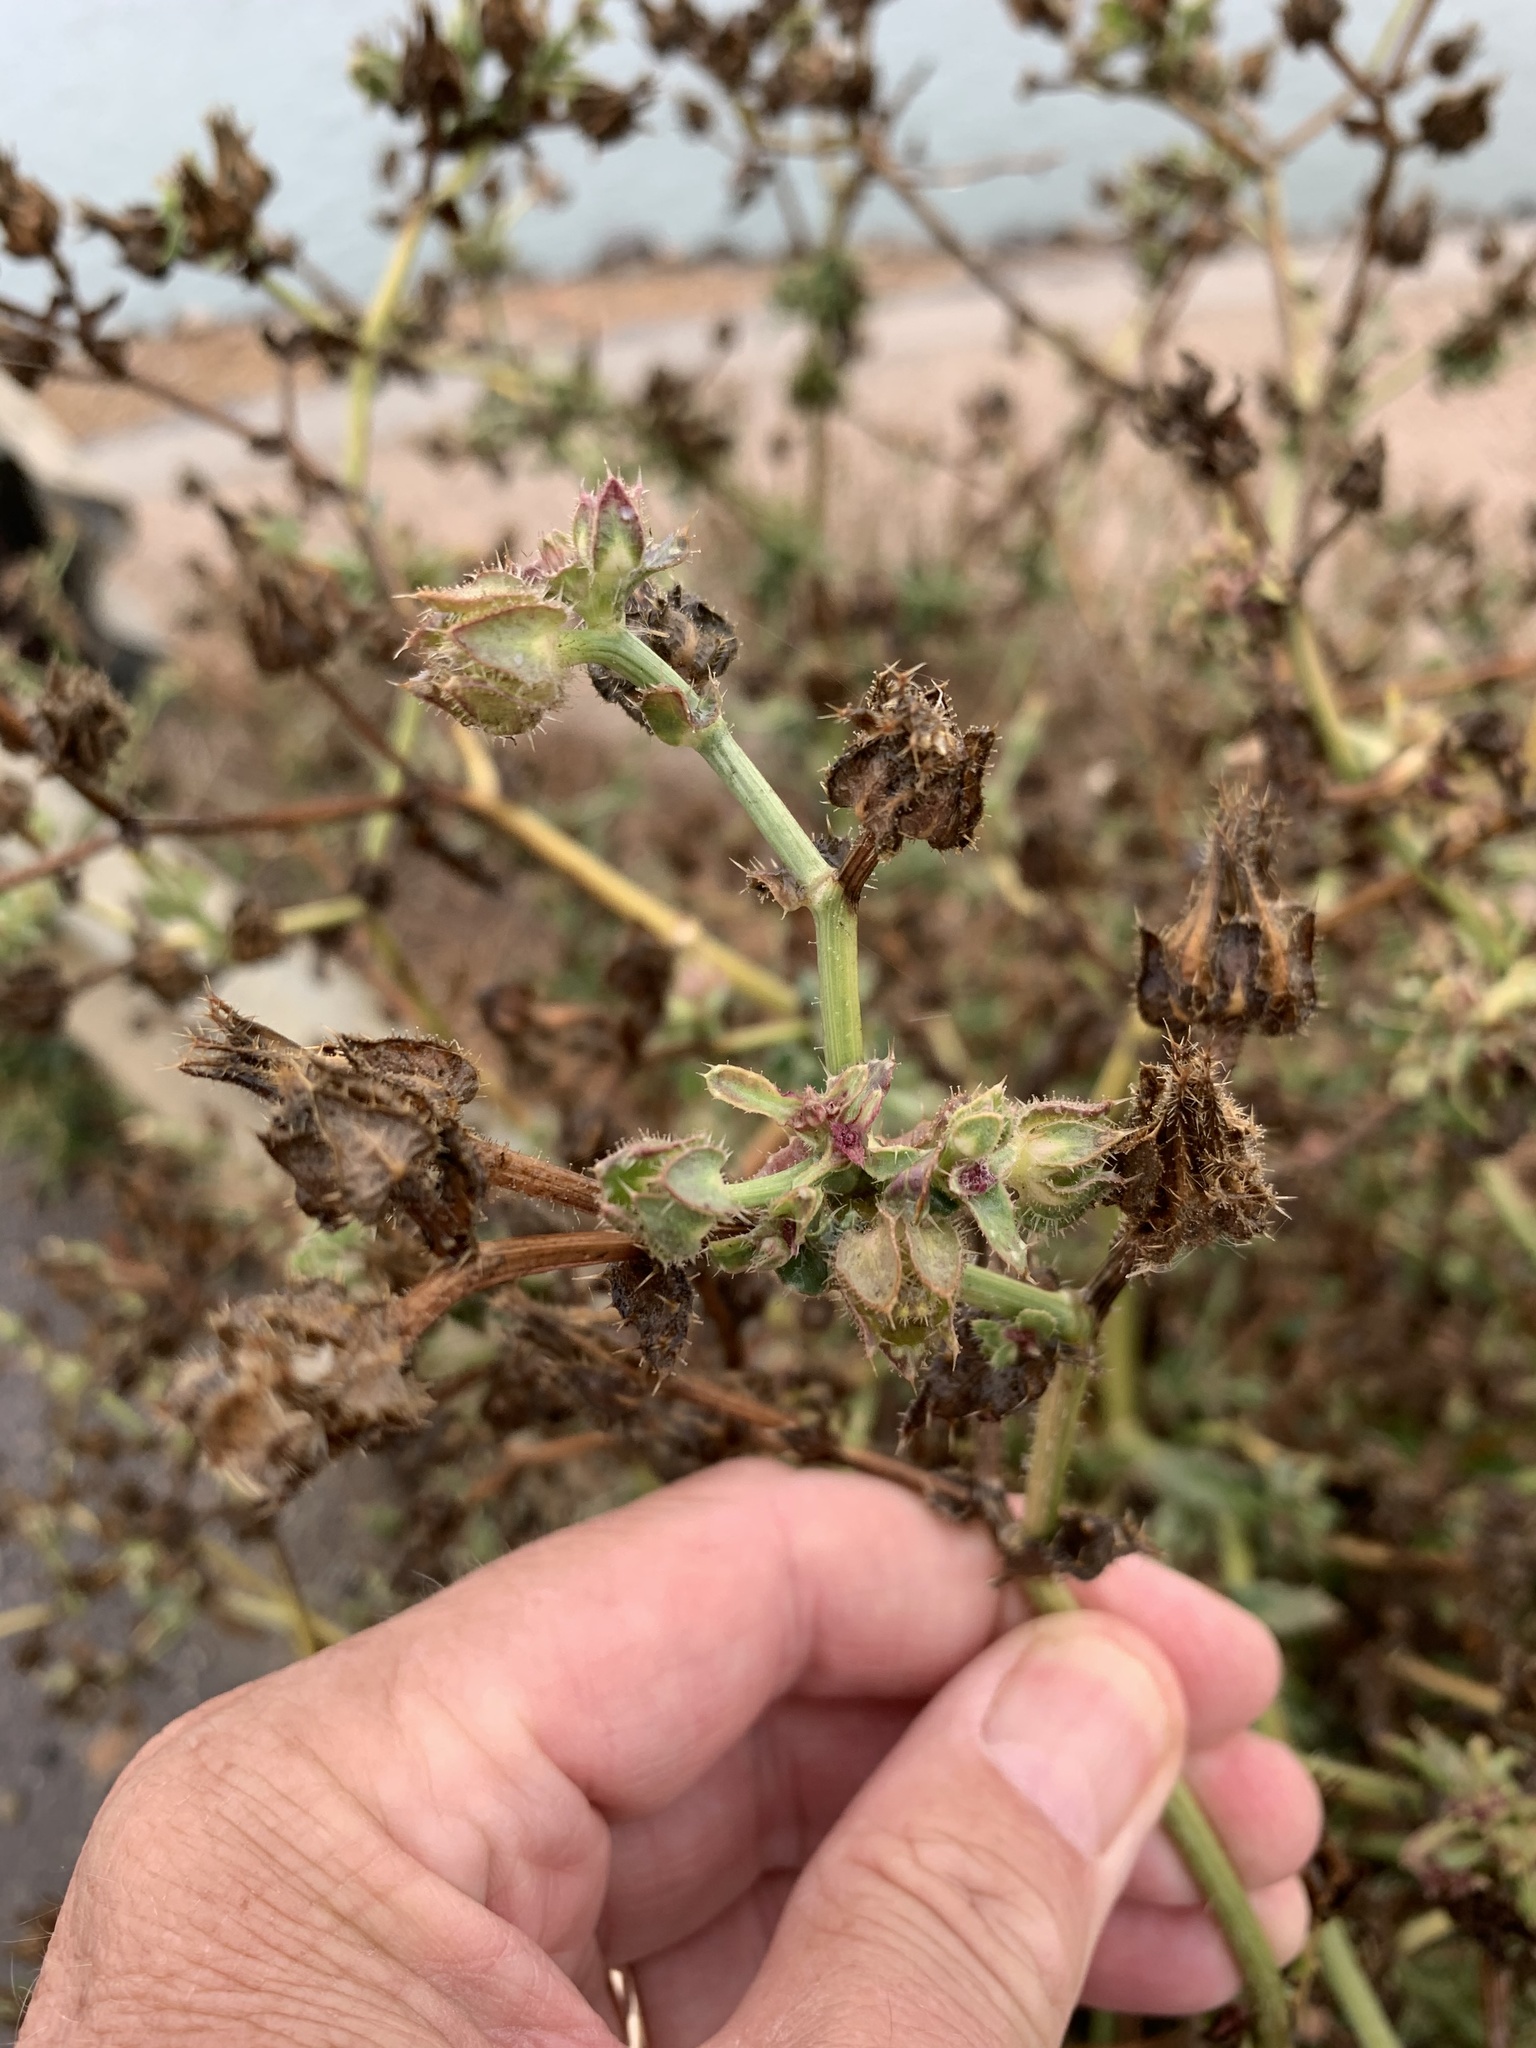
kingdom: Plantae
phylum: Tracheophyta
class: Magnoliopsida
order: Asterales
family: Asteraceae
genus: Helminthotheca
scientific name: Helminthotheca echioides
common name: Ox-tongue
